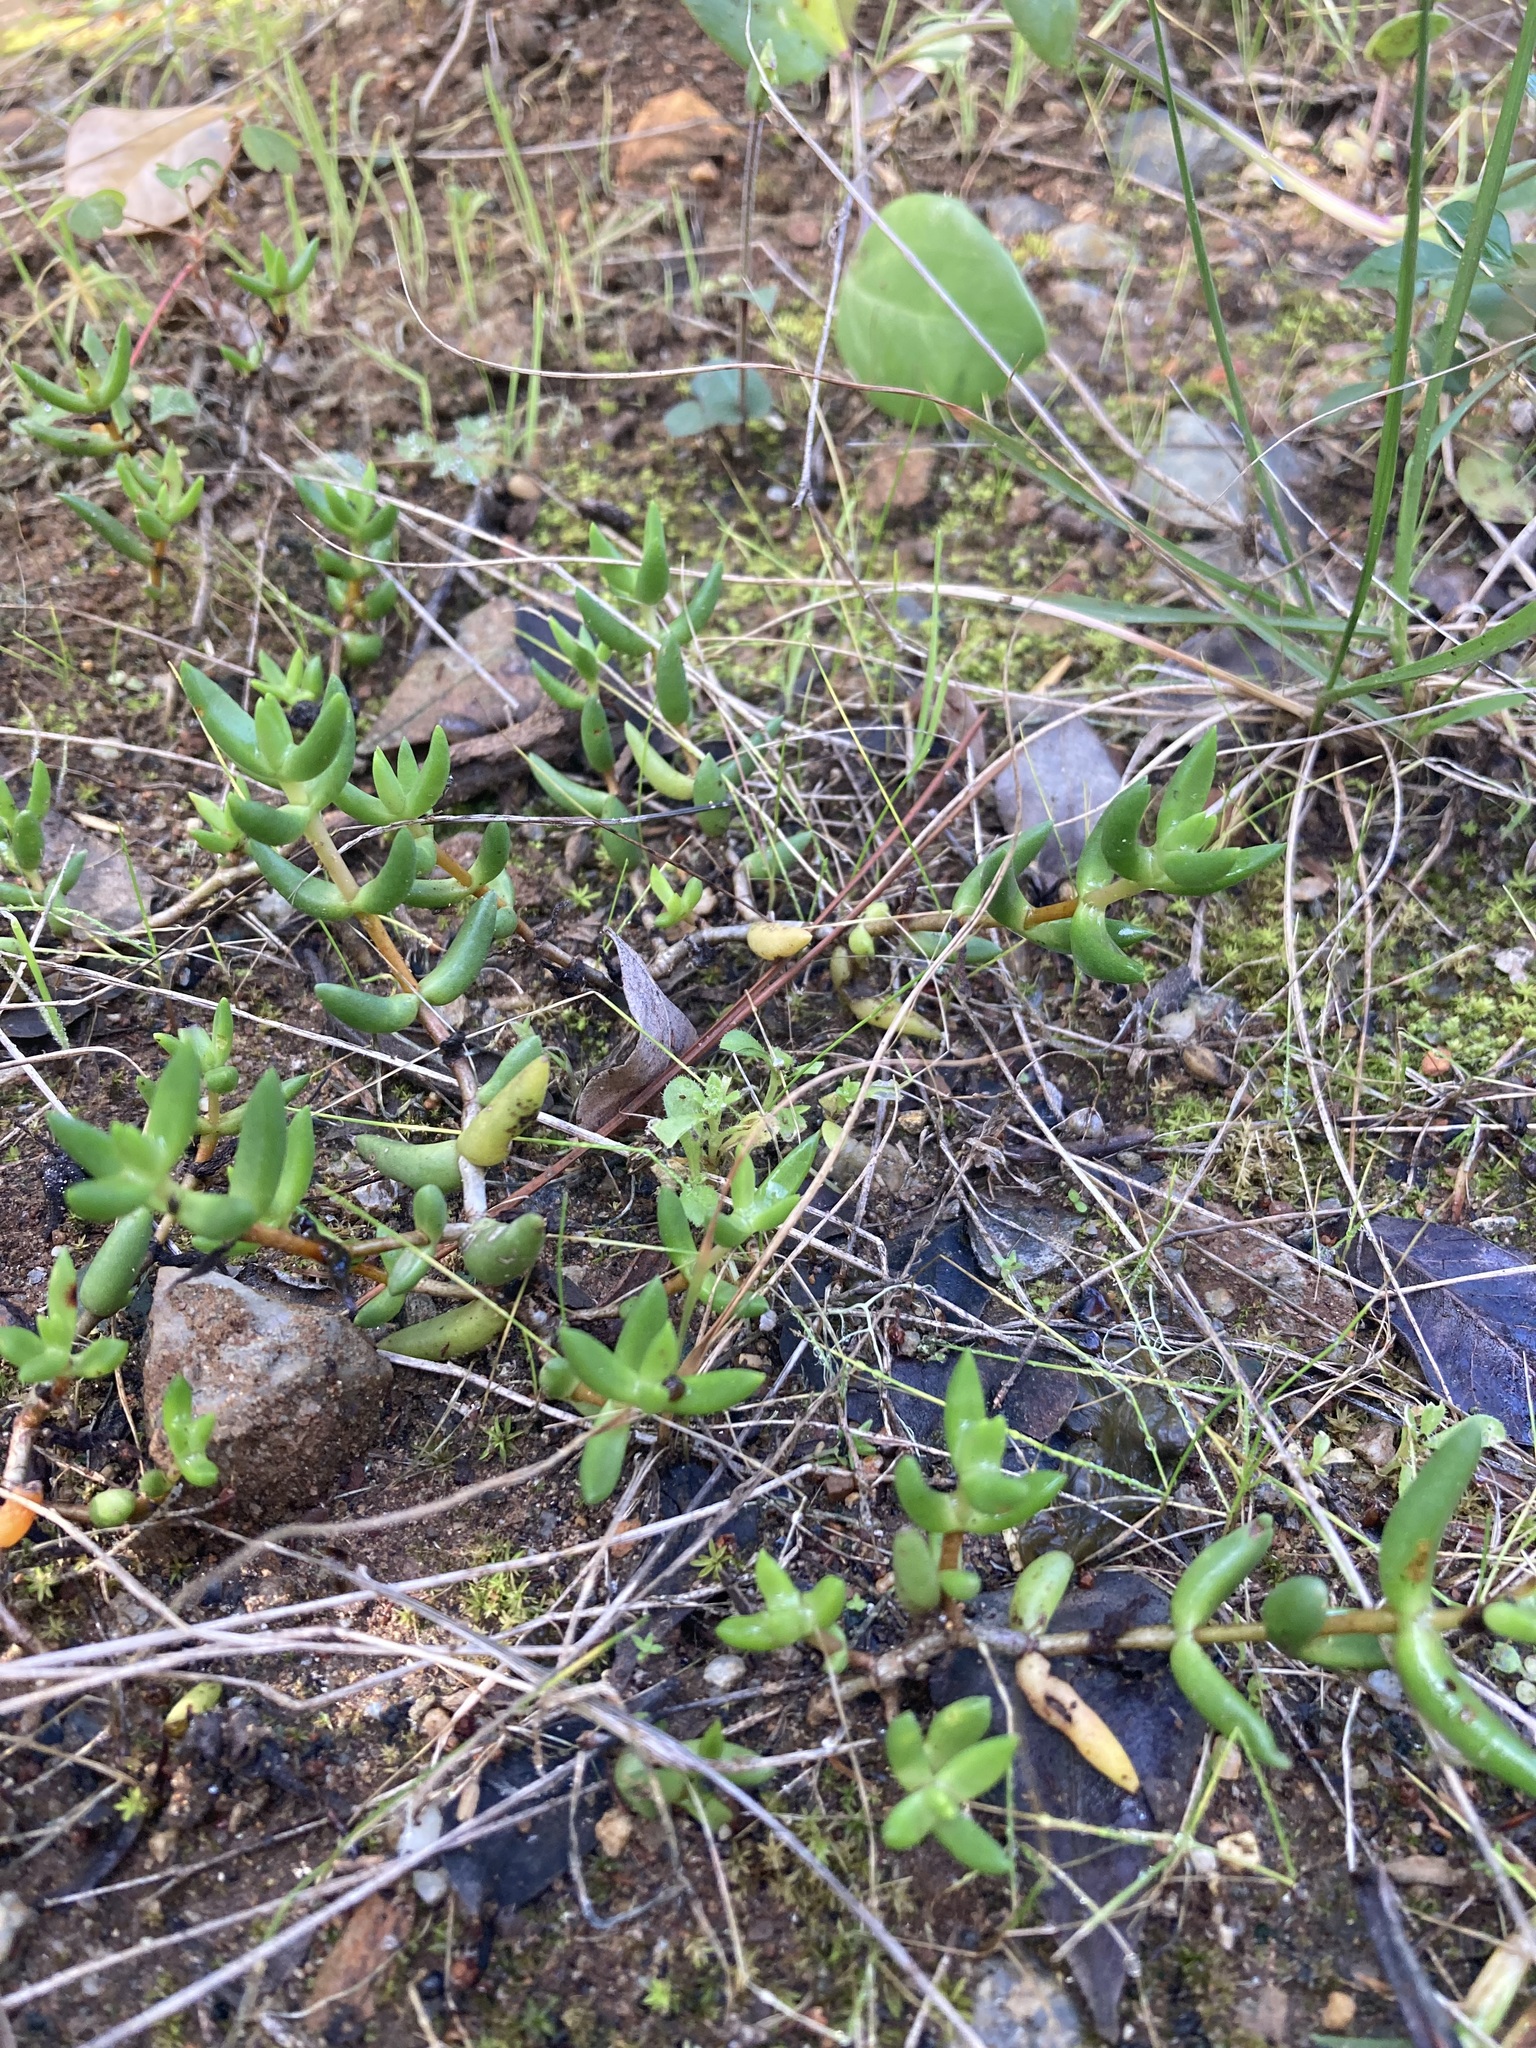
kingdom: Plantae
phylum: Tracheophyta
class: Magnoliopsida
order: Saxifragales
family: Crassulaceae
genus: Crassula
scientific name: Crassula tetragona
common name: Pygmyweed
